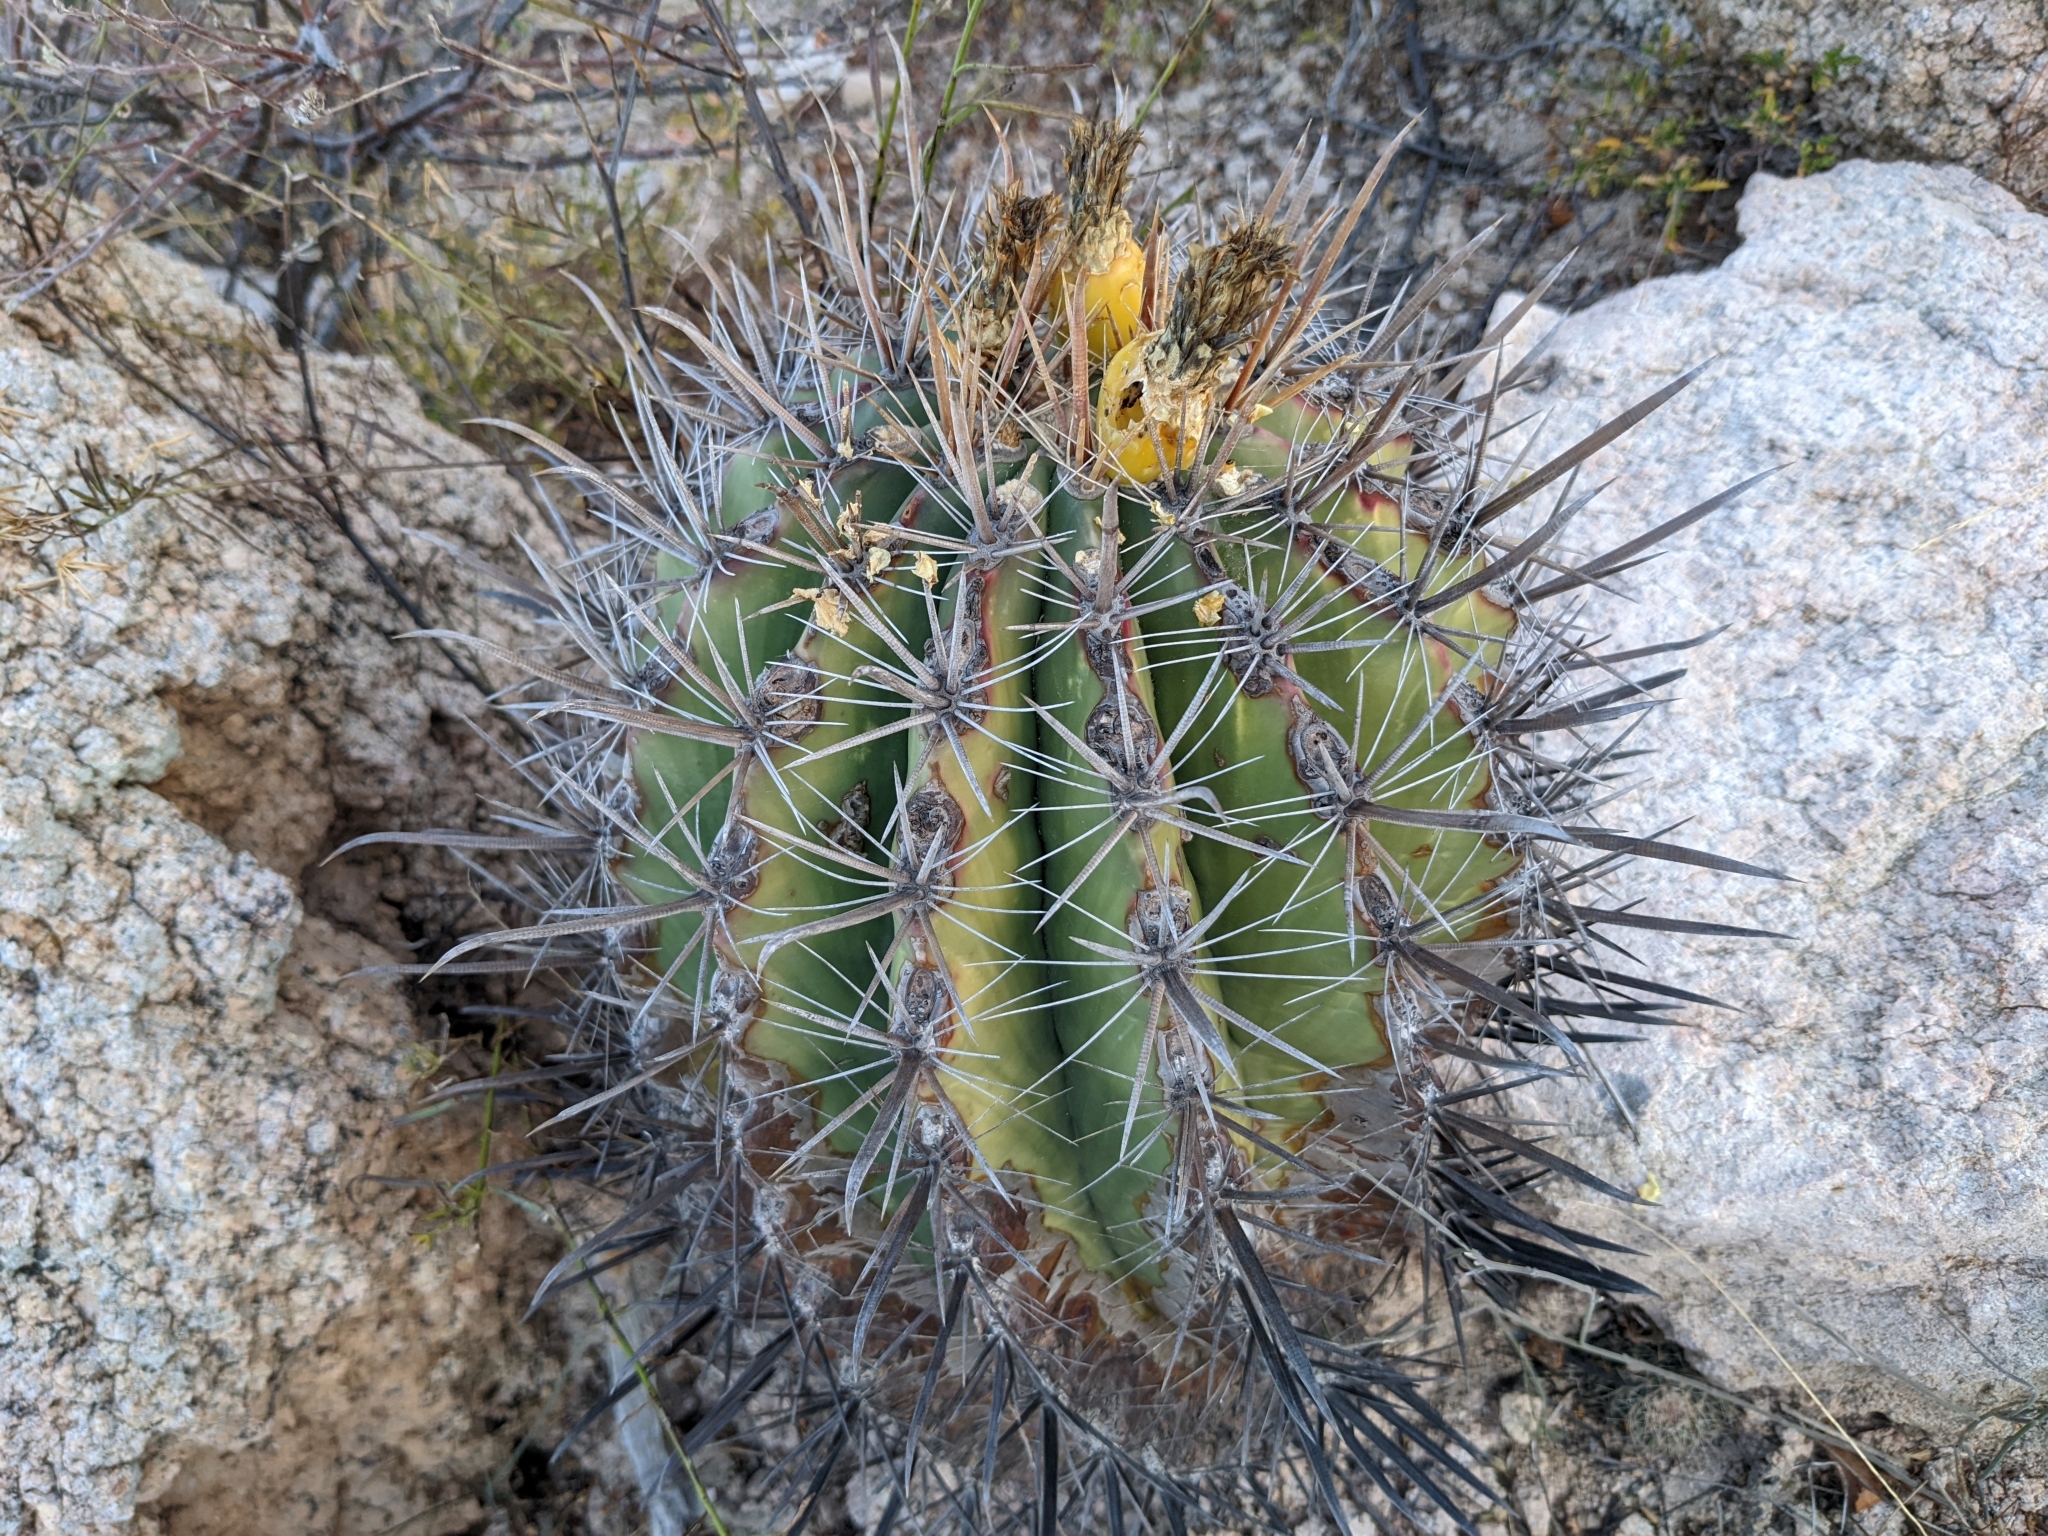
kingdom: Plantae
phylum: Tracheophyta
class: Magnoliopsida
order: Caryophyllales
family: Cactaceae
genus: Ferocactus
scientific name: Ferocactus townsendianus
